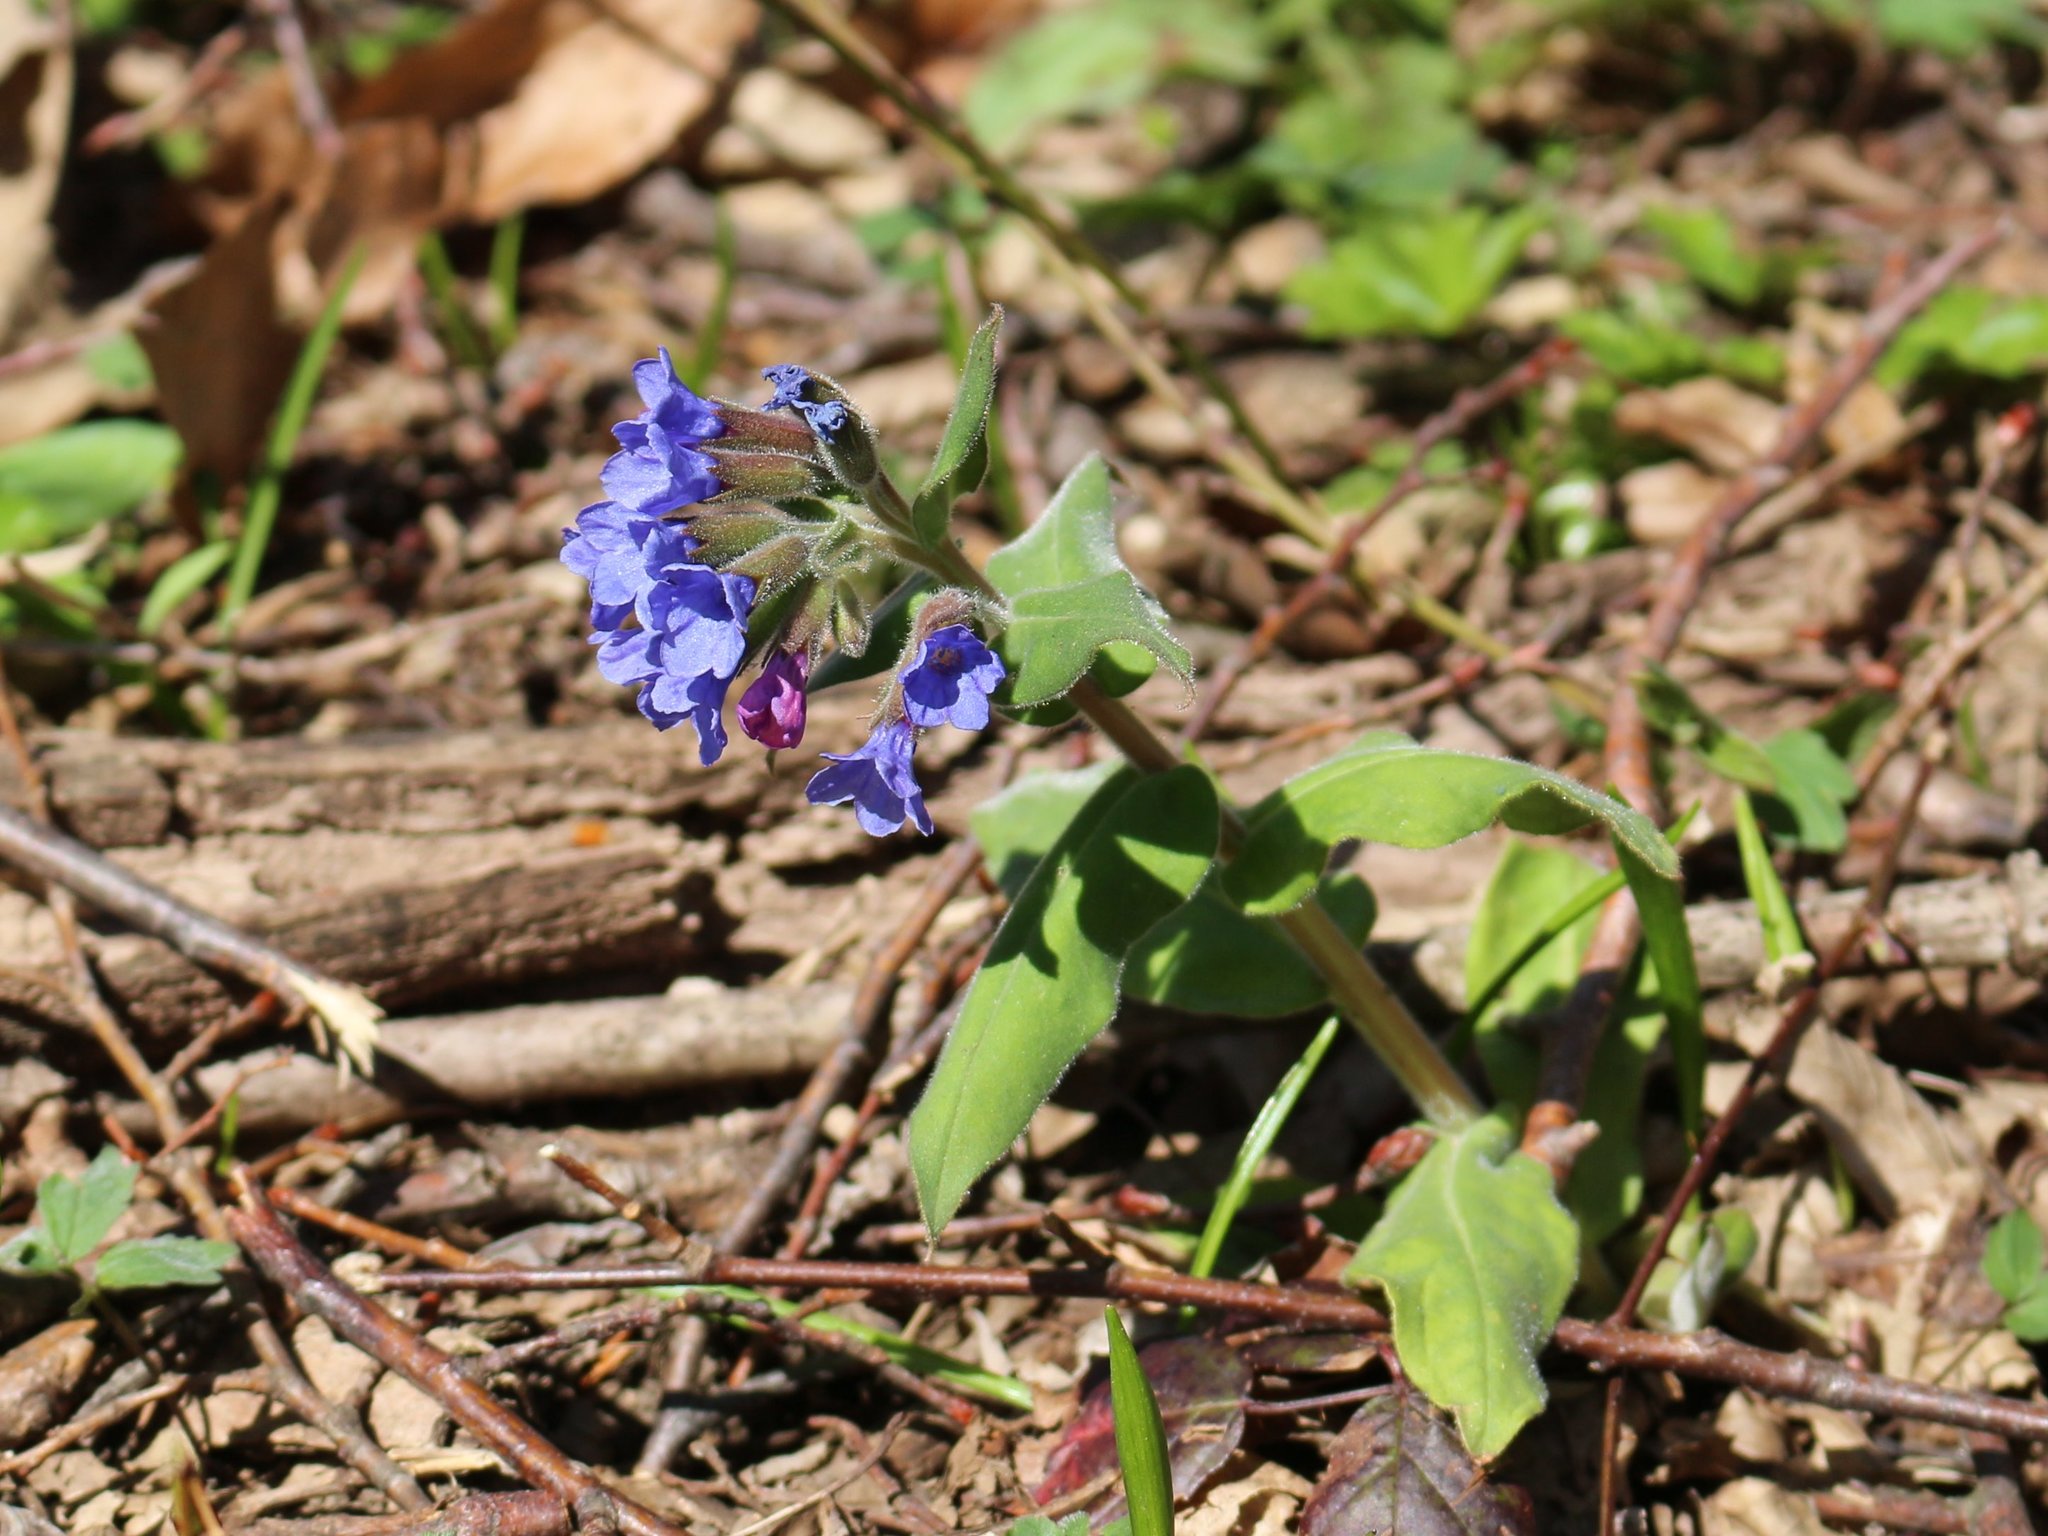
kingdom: Plantae
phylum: Tracheophyta
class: Magnoliopsida
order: Boraginales
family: Boraginaceae
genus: Pulmonaria
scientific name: Pulmonaria mollis
